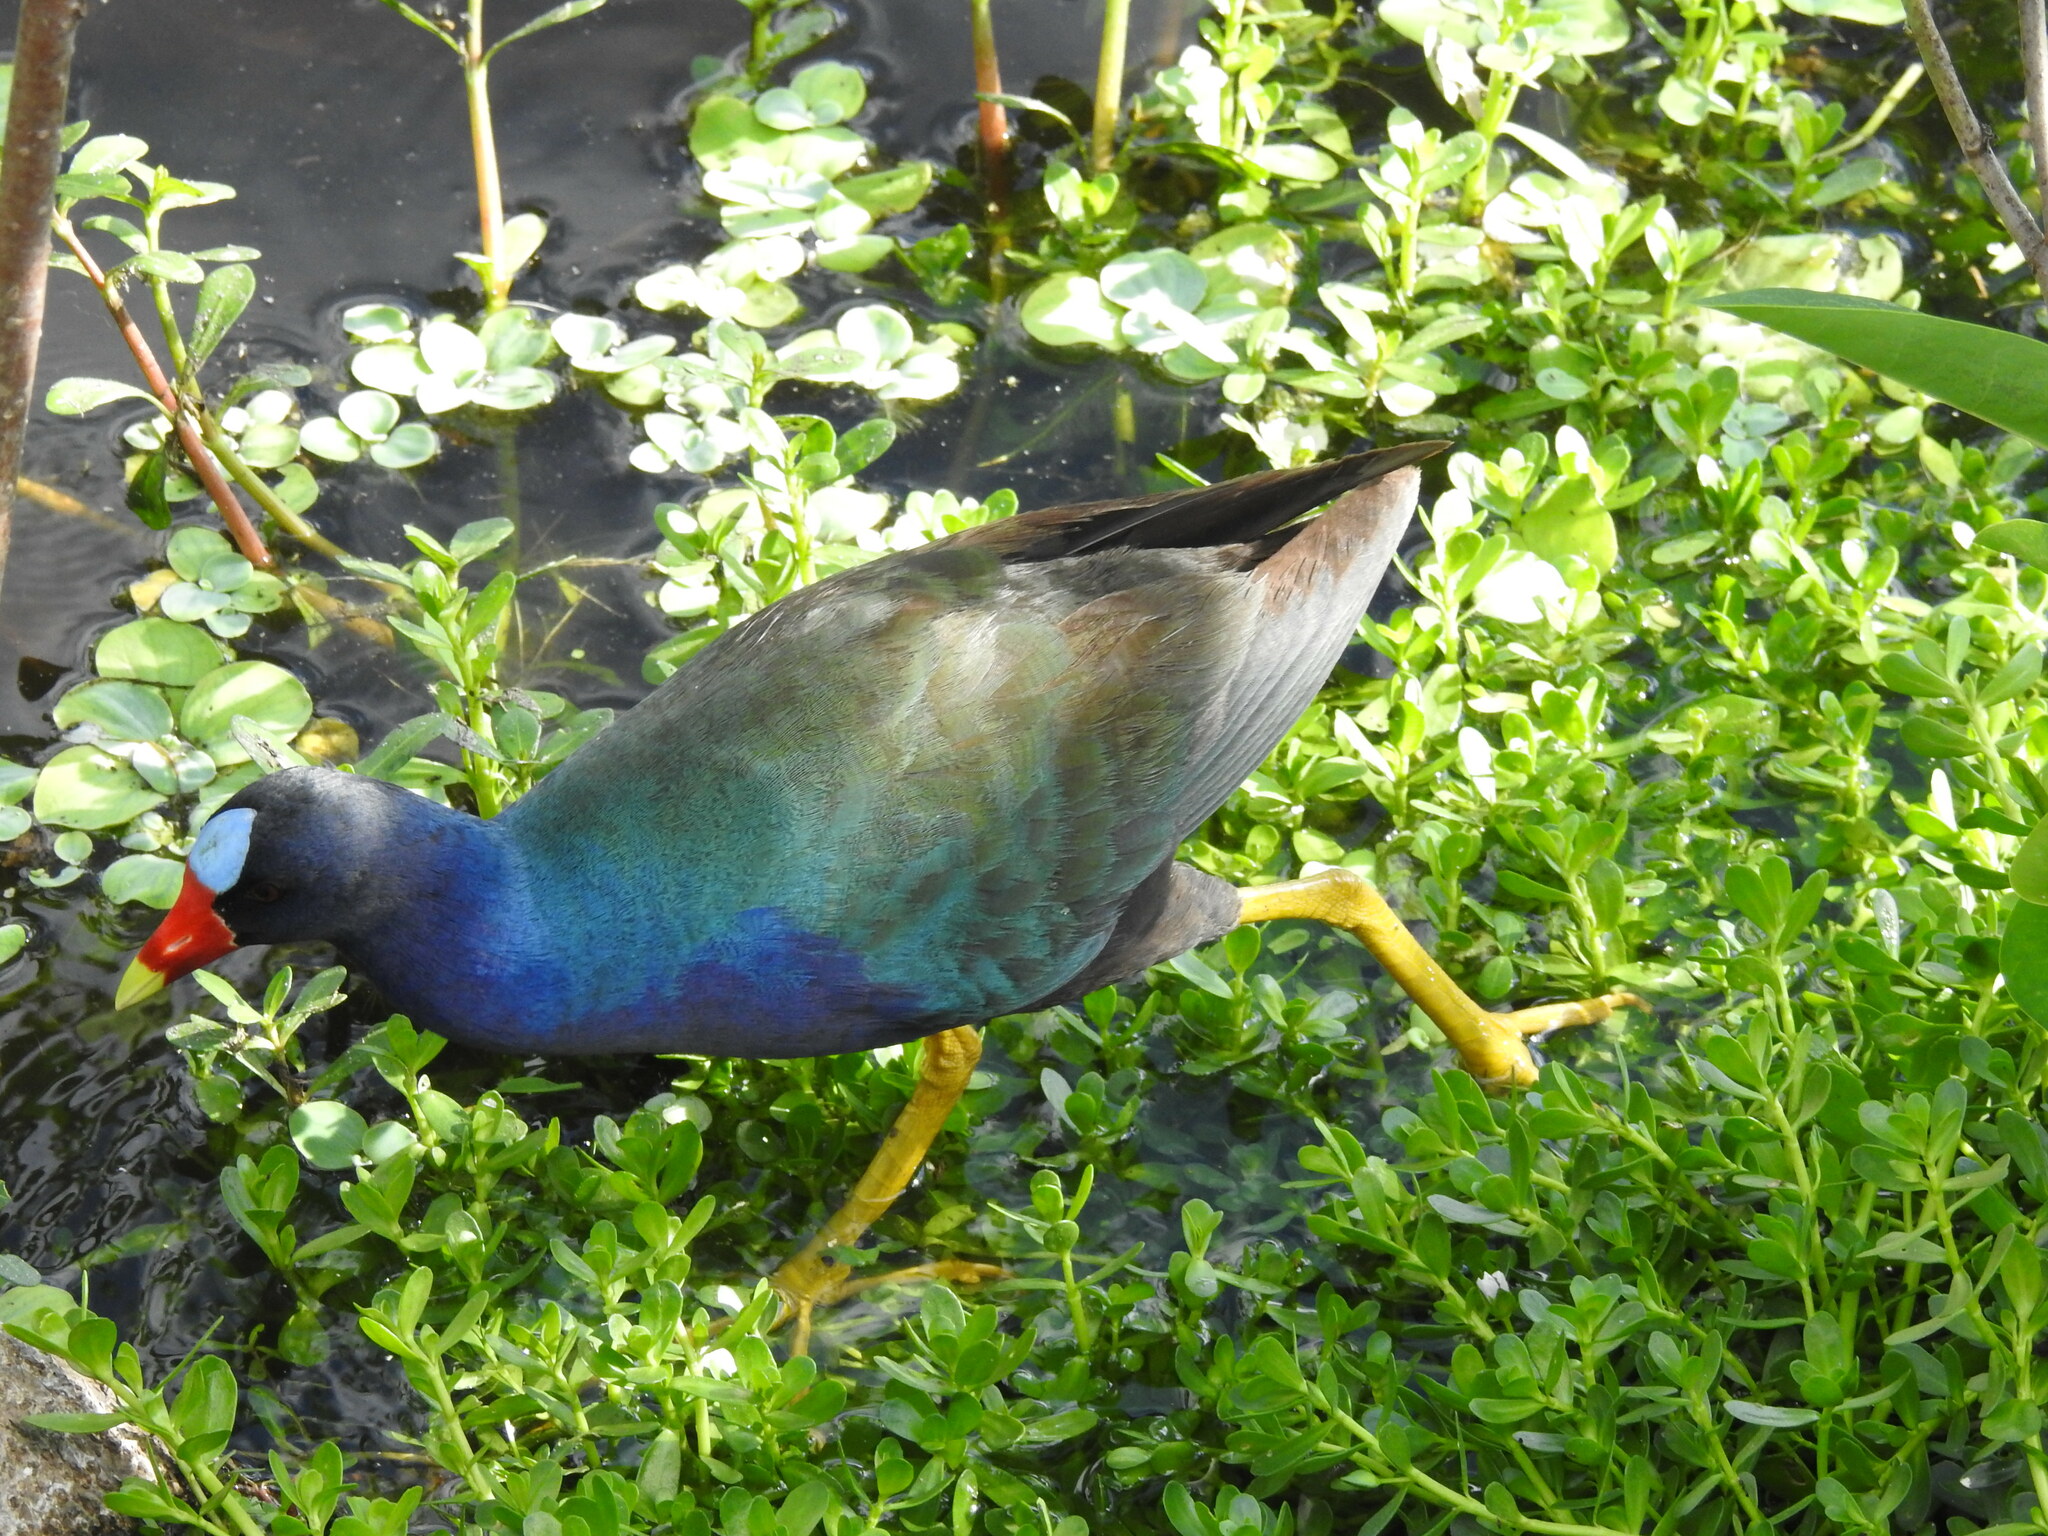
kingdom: Animalia
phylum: Chordata
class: Aves
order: Gruiformes
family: Rallidae
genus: Porphyrio
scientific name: Porphyrio martinica
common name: Purple gallinule
